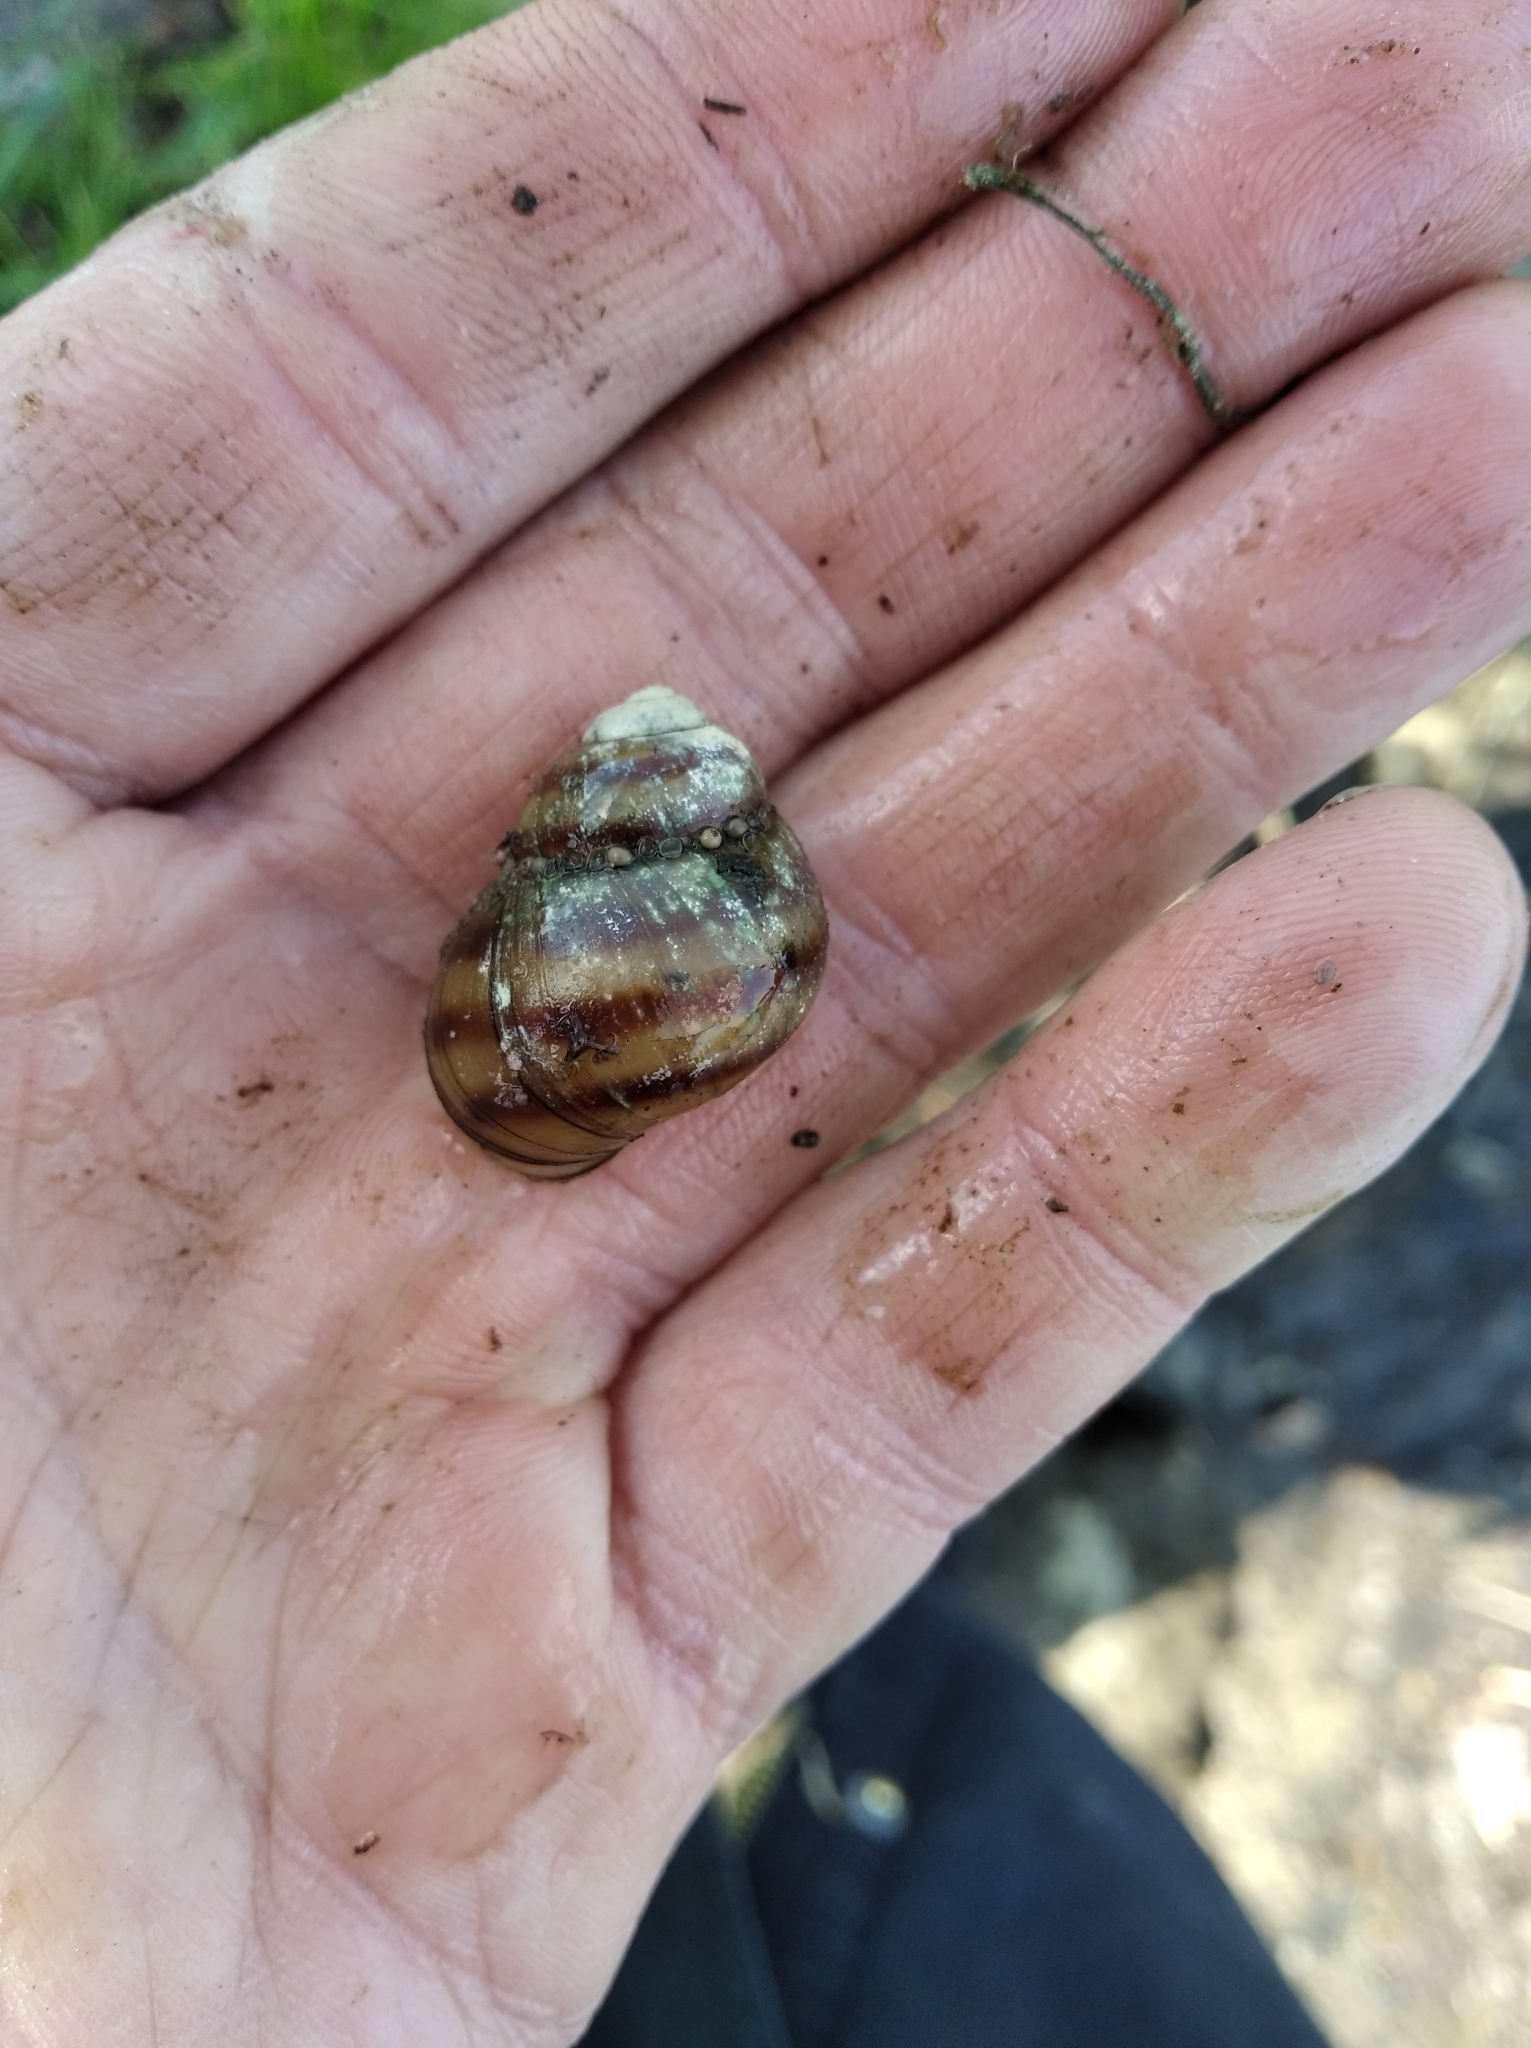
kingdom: Animalia
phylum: Mollusca
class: Gastropoda
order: Architaenioglossa
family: Viviparidae
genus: Viviparus
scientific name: Viviparus viviparus
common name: River snail
